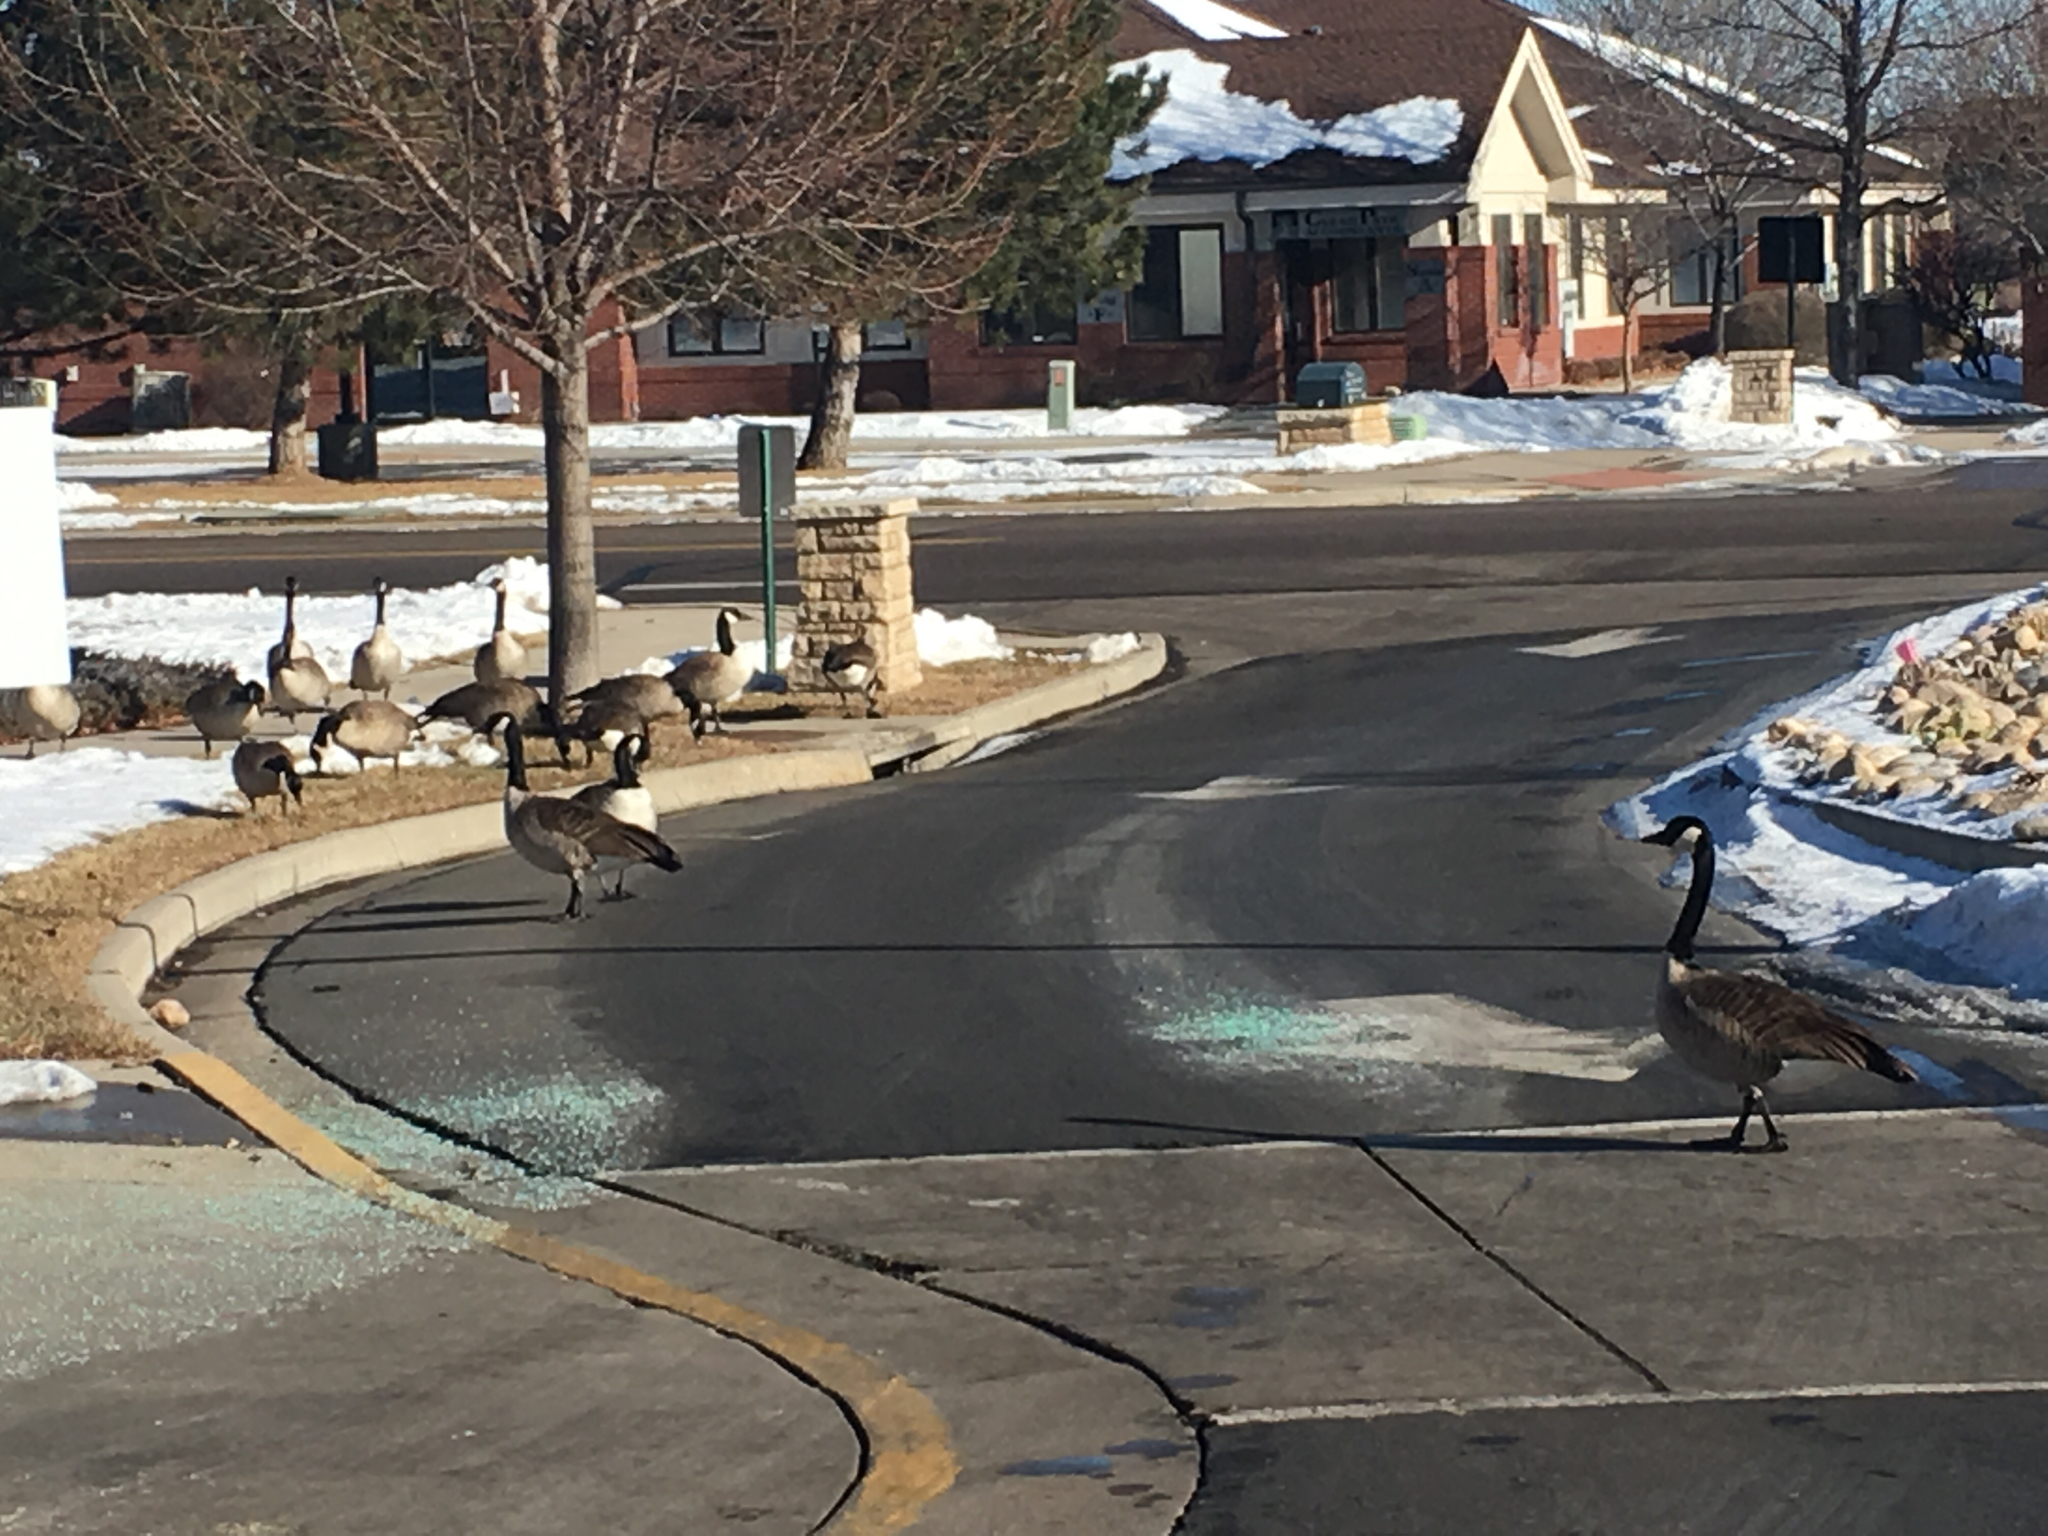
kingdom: Animalia
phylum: Chordata
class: Aves
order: Anseriformes
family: Anatidae
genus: Branta
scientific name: Branta canadensis
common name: Canada goose
